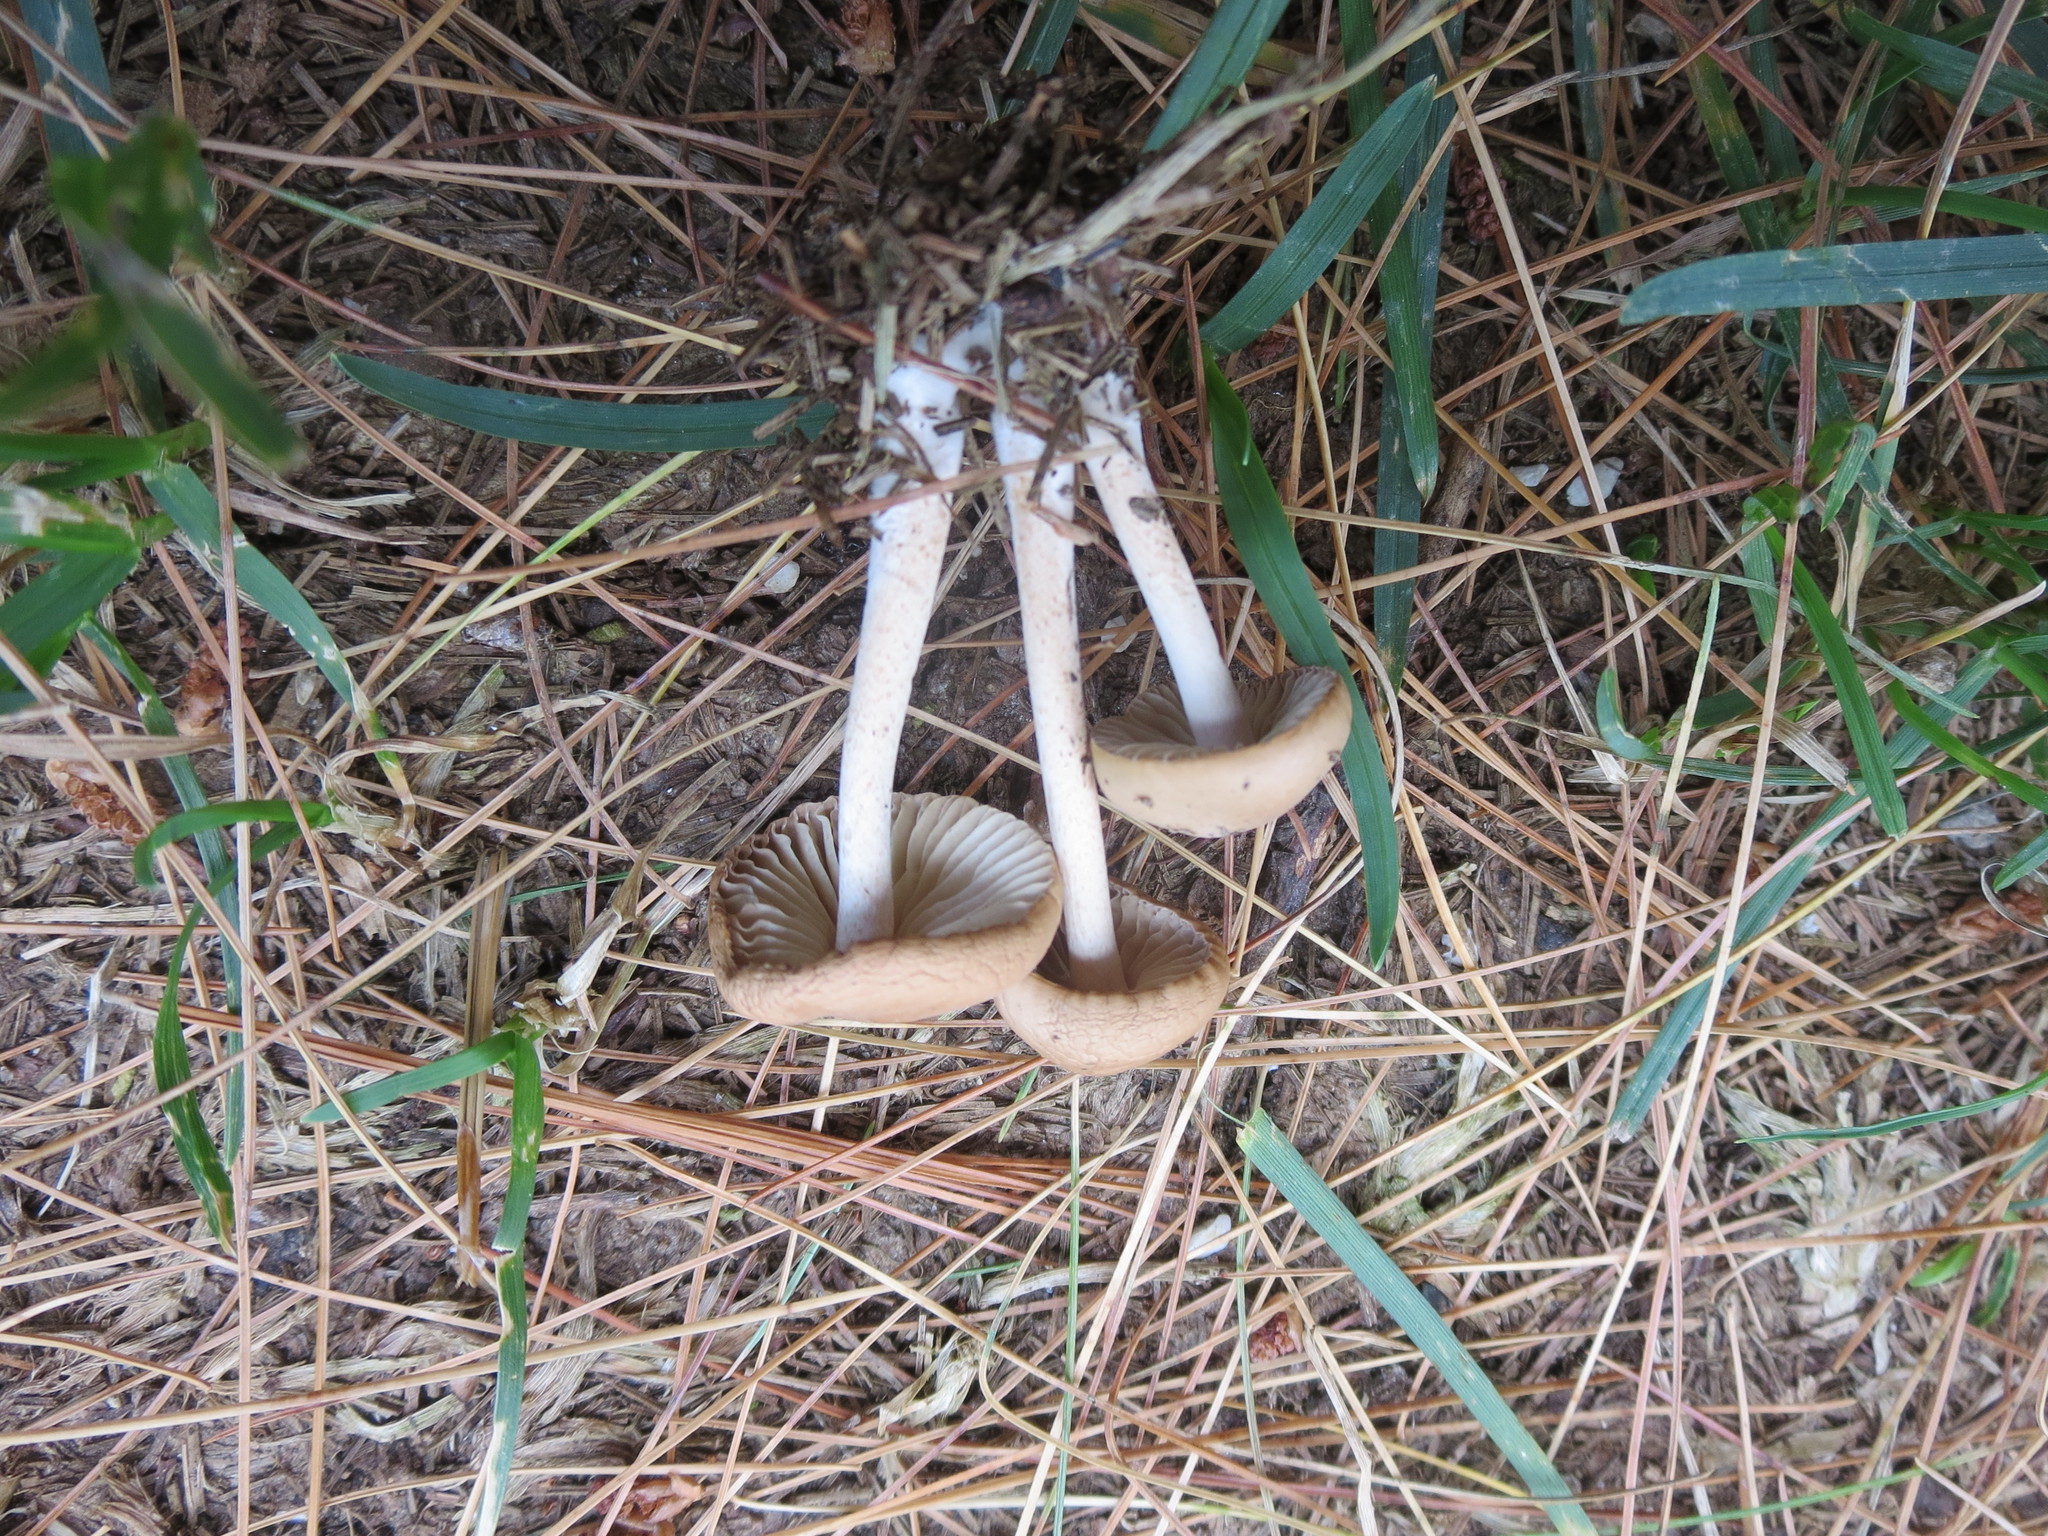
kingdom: Fungi
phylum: Basidiomycota
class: Agaricomycetes
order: Agaricales
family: Marasmiaceae
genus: Marasmius
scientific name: Marasmius oreades
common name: Fairy ring champignon
